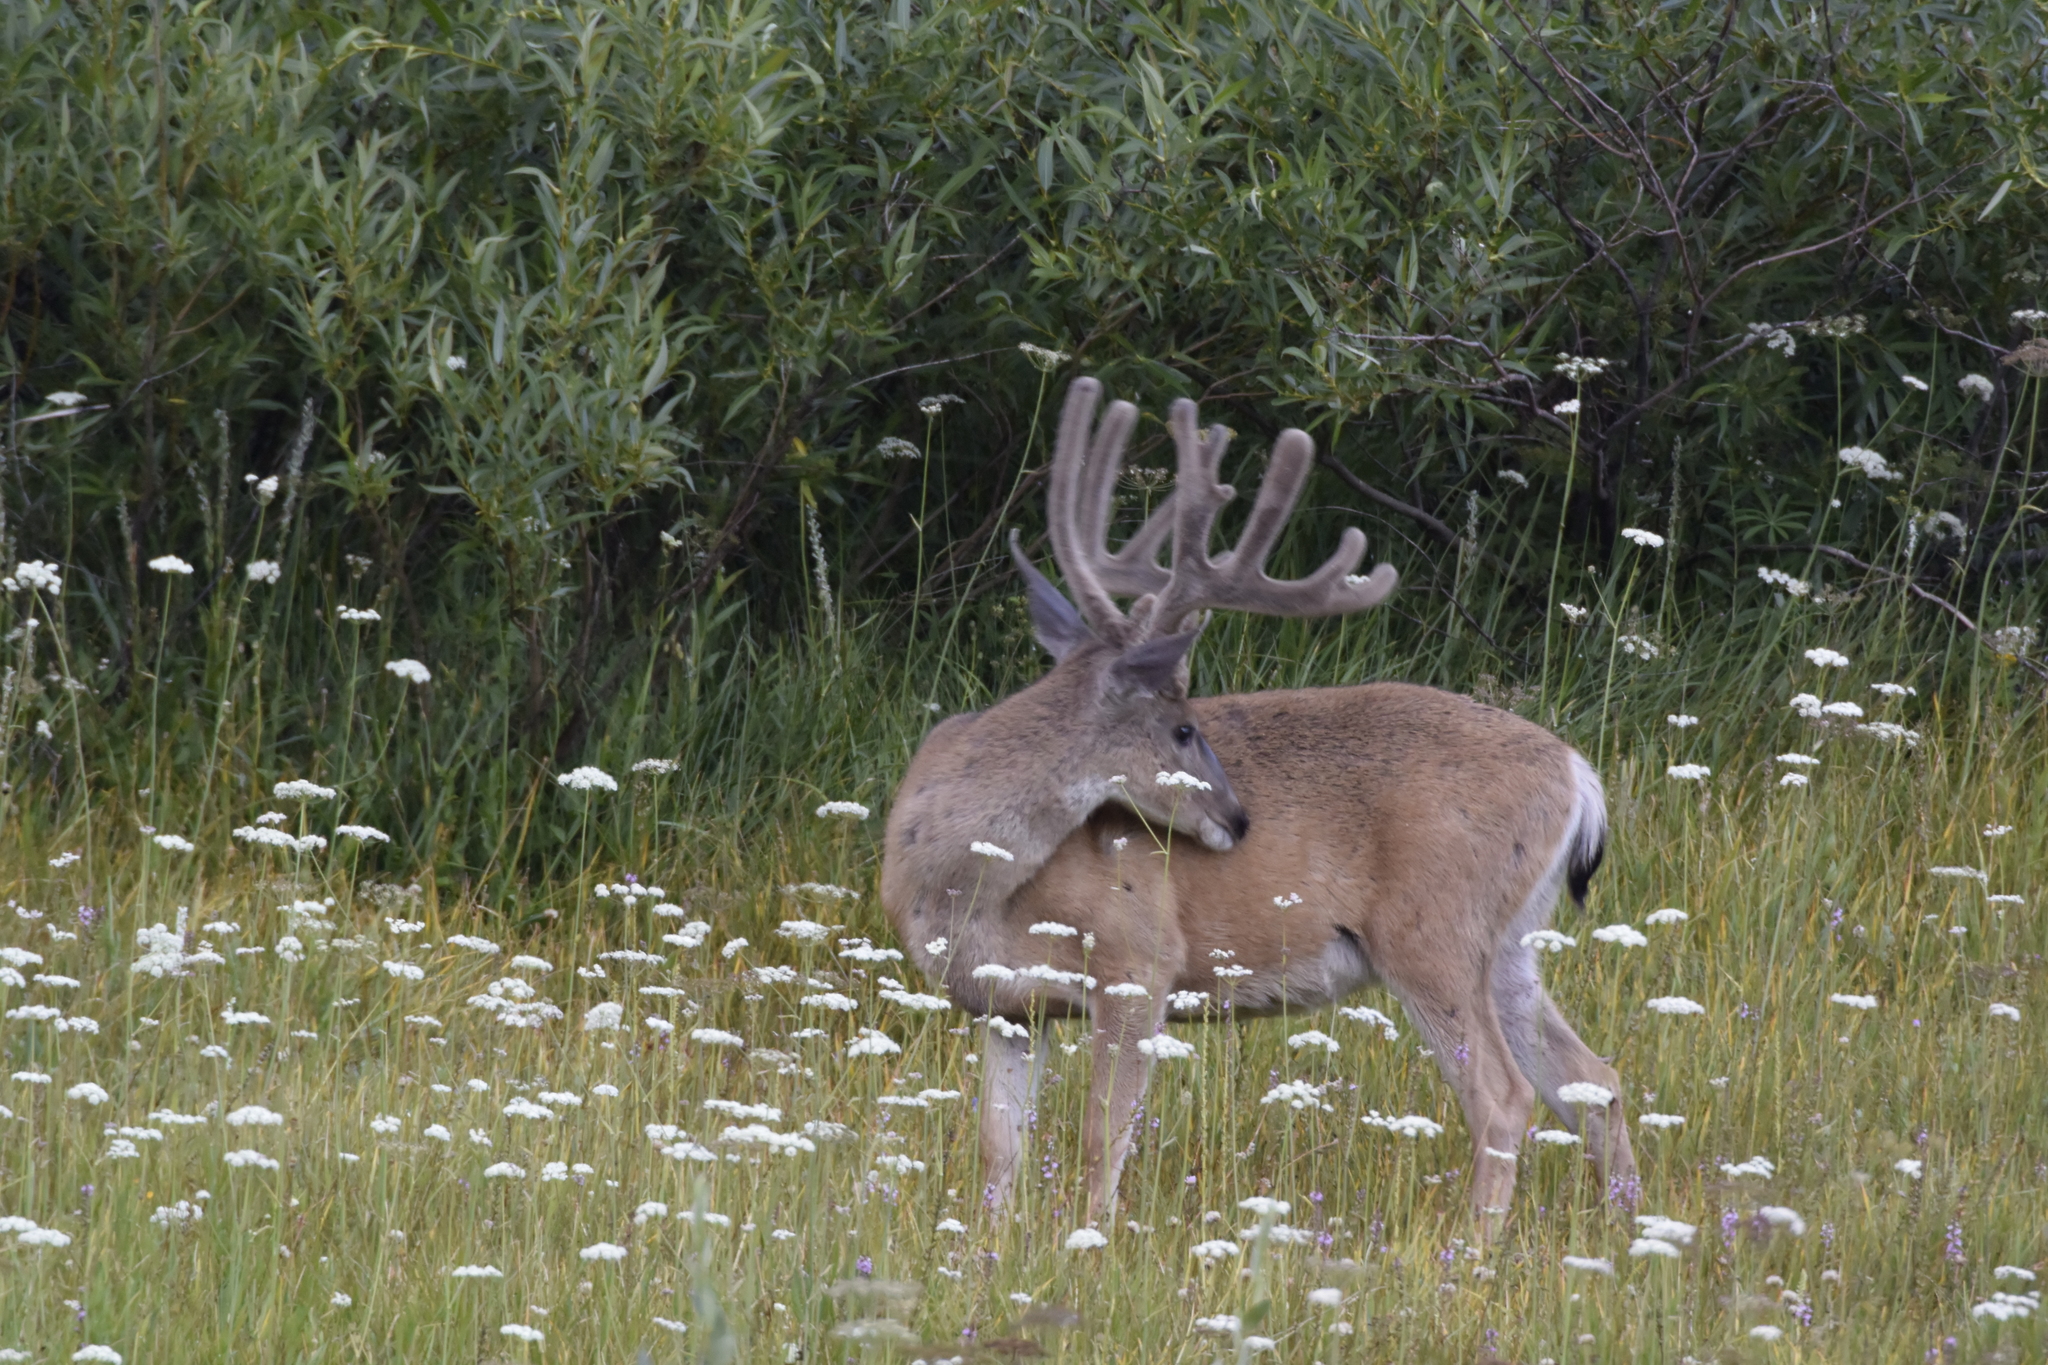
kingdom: Animalia
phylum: Chordata
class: Mammalia
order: Artiodactyla
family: Cervidae
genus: Odocoileus
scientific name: Odocoileus hemionus
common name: Mule deer
